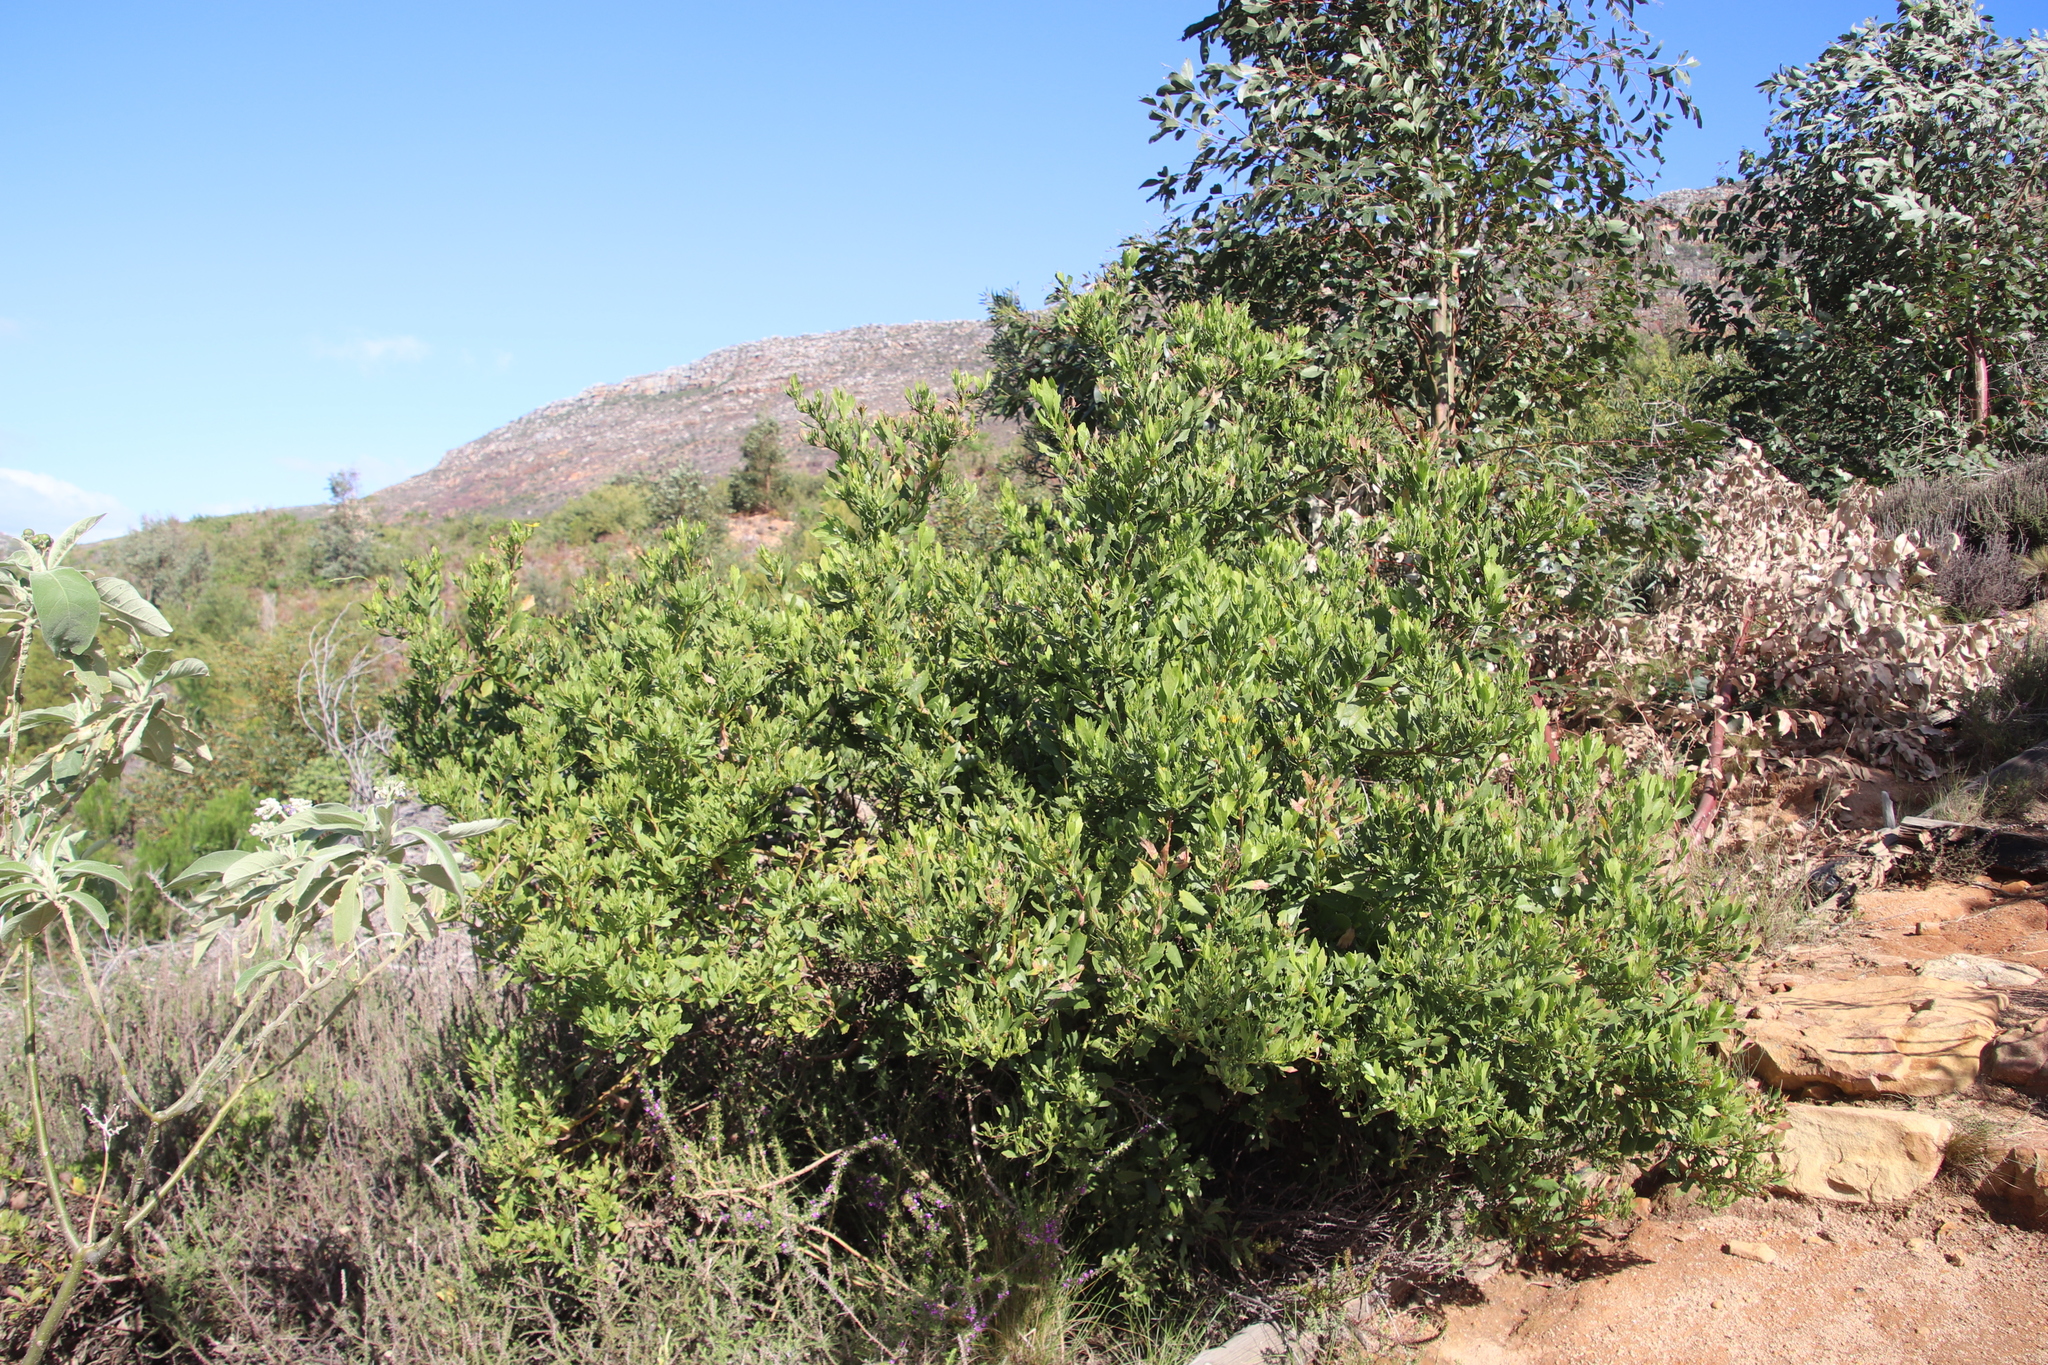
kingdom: Plantae
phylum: Tracheophyta
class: Magnoliopsida
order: Asterales
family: Asteraceae
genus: Osteospermum
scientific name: Osteospermum moniliferum
